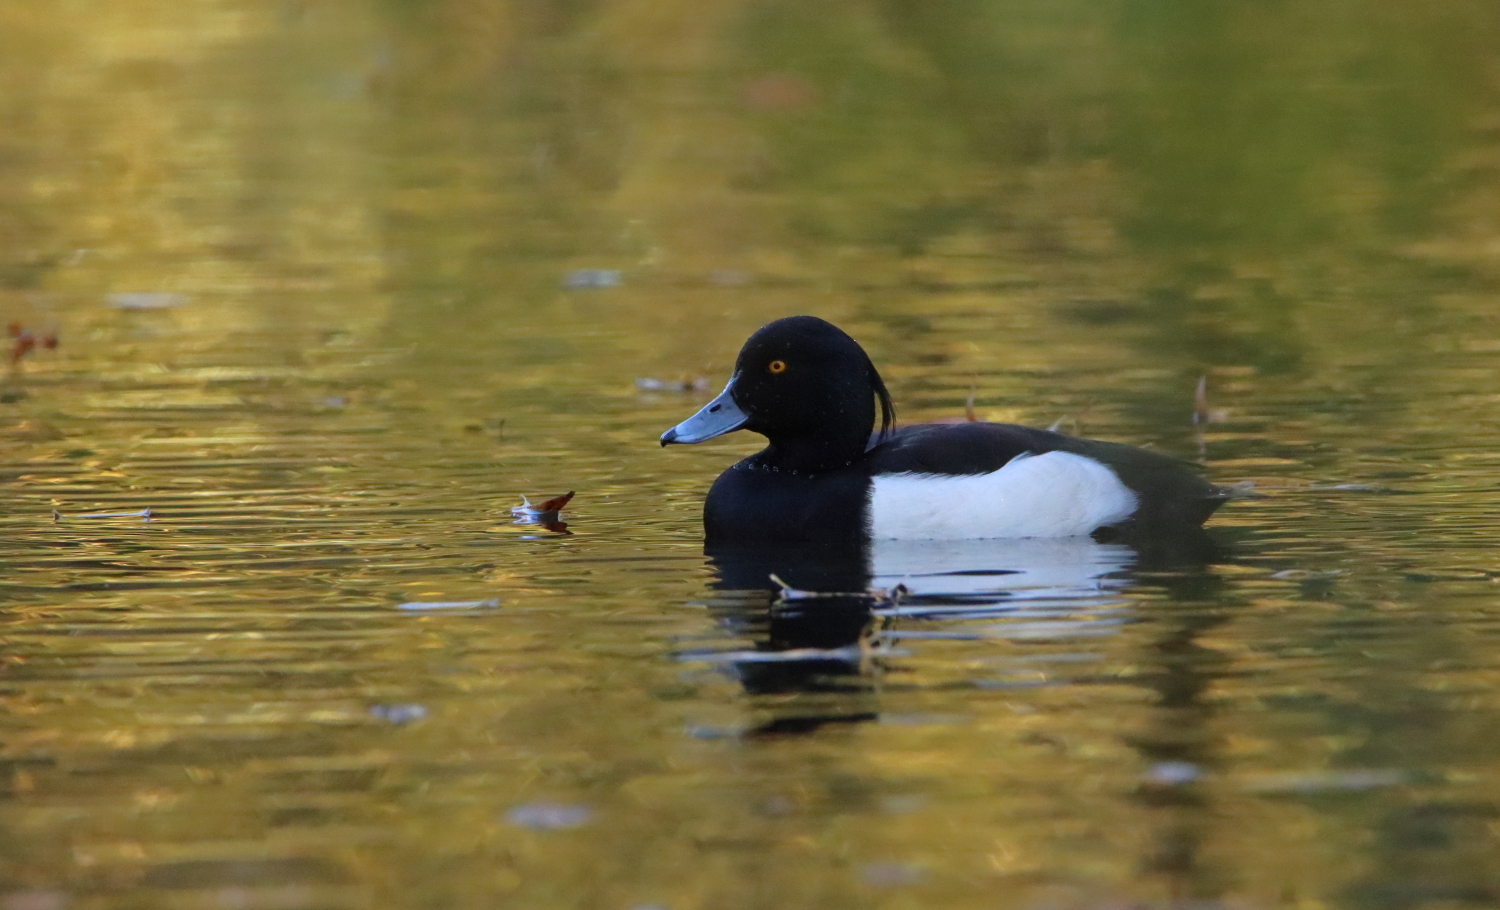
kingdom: Animalia
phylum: Chordata
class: Aves
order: Anseriformes
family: Anatidae
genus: Aythya
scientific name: Aythya fuligula
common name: Tufted duck
